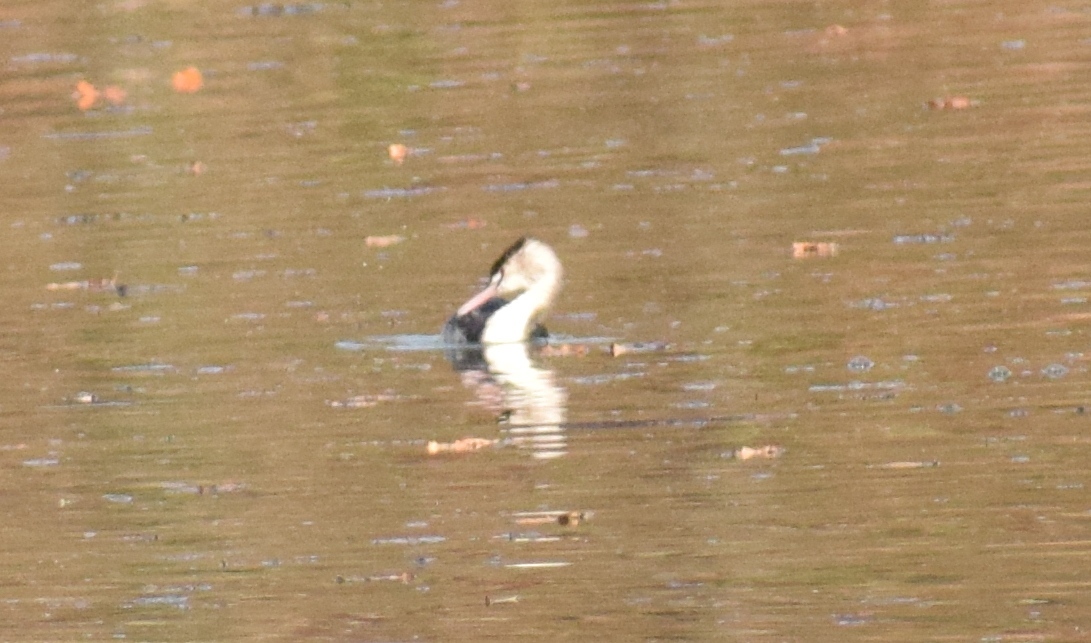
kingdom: Animalia
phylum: Chordata
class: Aves
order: Podicipediformes
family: Podicipedidae
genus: Podiceps
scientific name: Podiceps cristatus
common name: Great crested grebe
